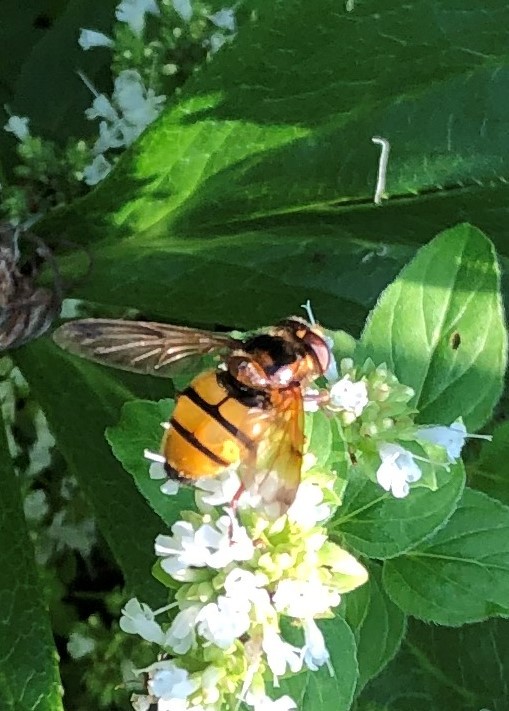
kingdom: Animalia
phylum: Arthropoda
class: Insecta
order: Diptera
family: Syrphidae
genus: Volucella
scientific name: Volucella inanis
